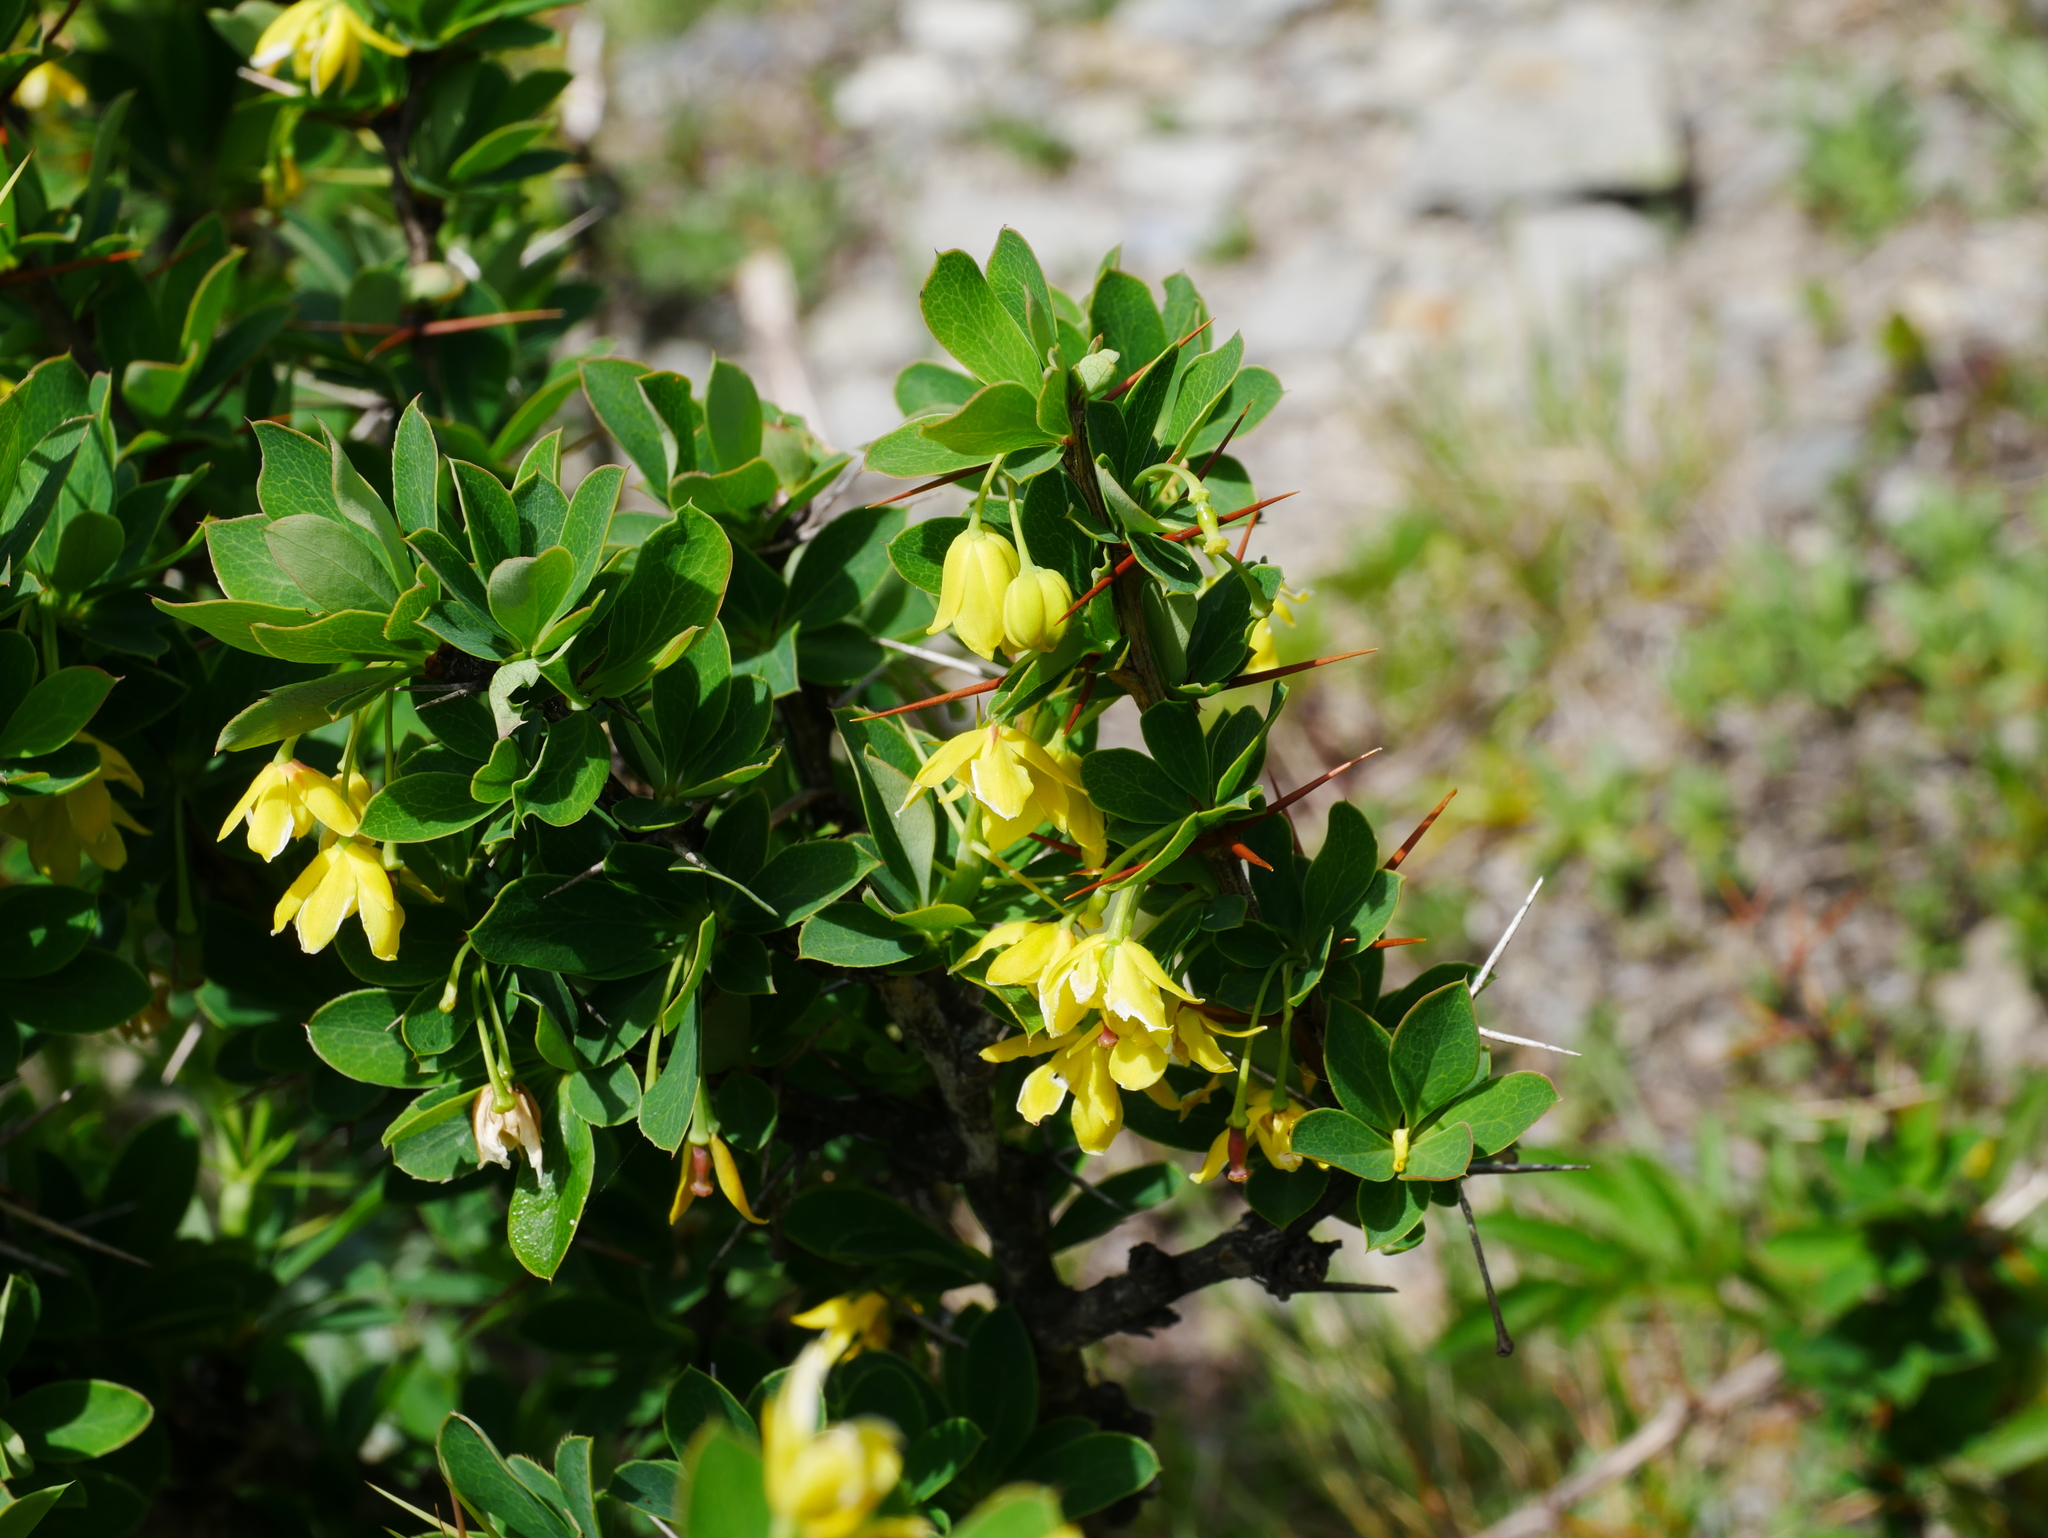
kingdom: Plantae
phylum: Tracheophyta
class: Magnoliopsida
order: Ranunculales
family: Berberidaceae
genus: Berberis
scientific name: Berberis morrisonensis
